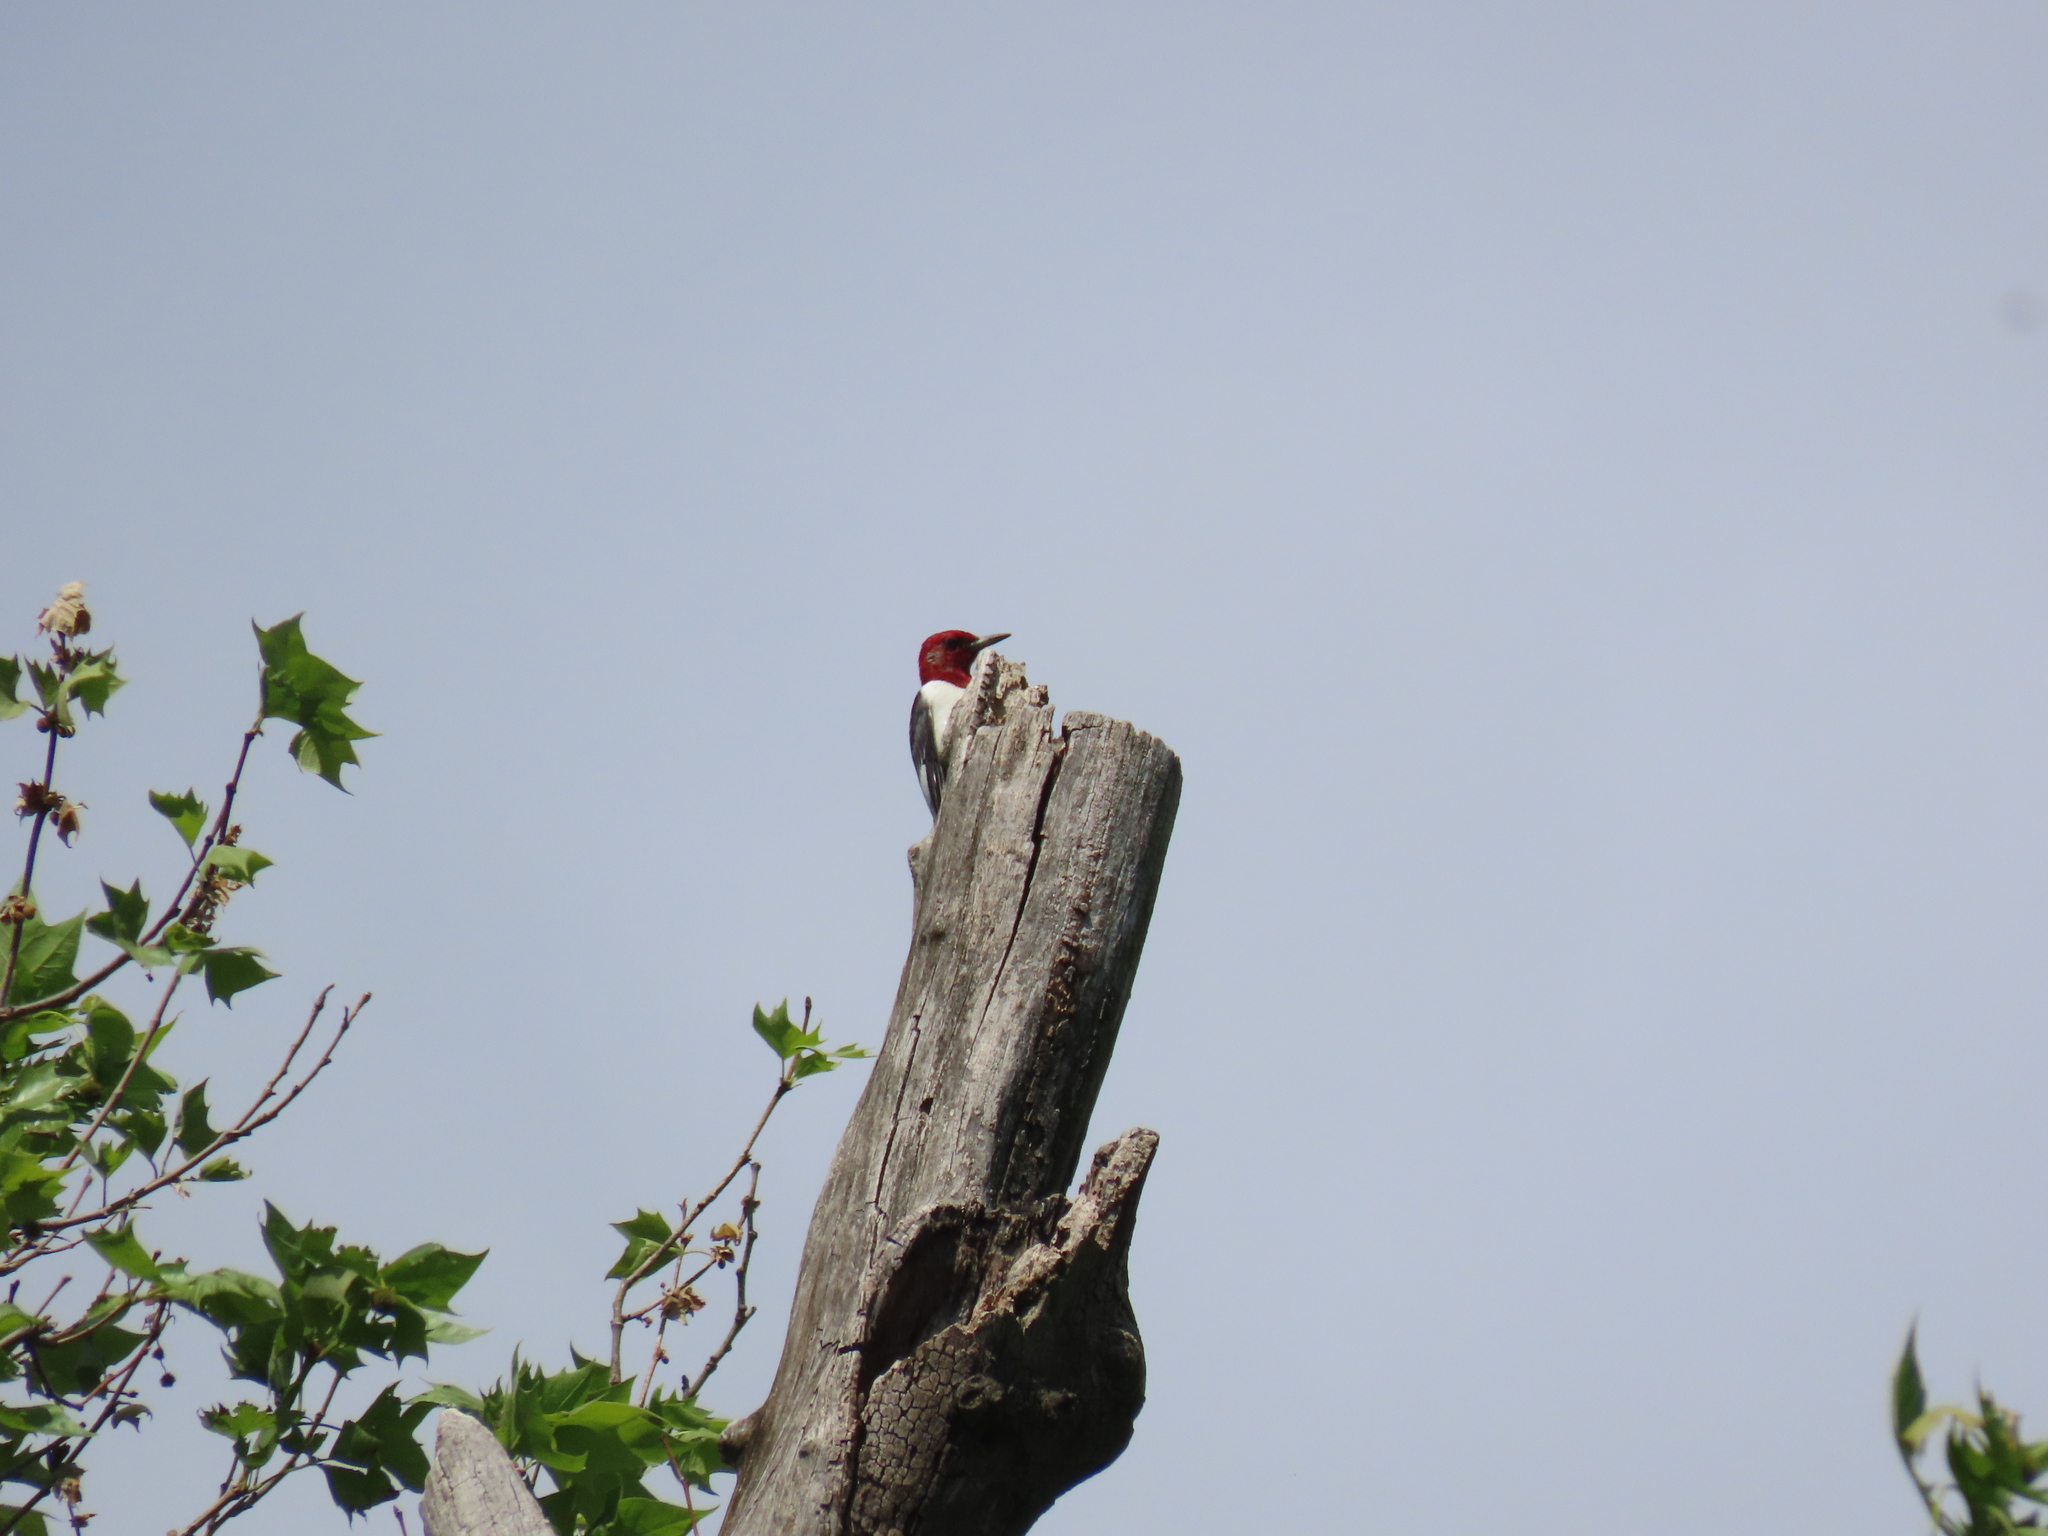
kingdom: Animalia
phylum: Chordata
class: Aves
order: Piciformes
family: Picidae
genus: Melanerpes
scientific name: Melanerpes erythrocephalus
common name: Red-headed woodpecker
